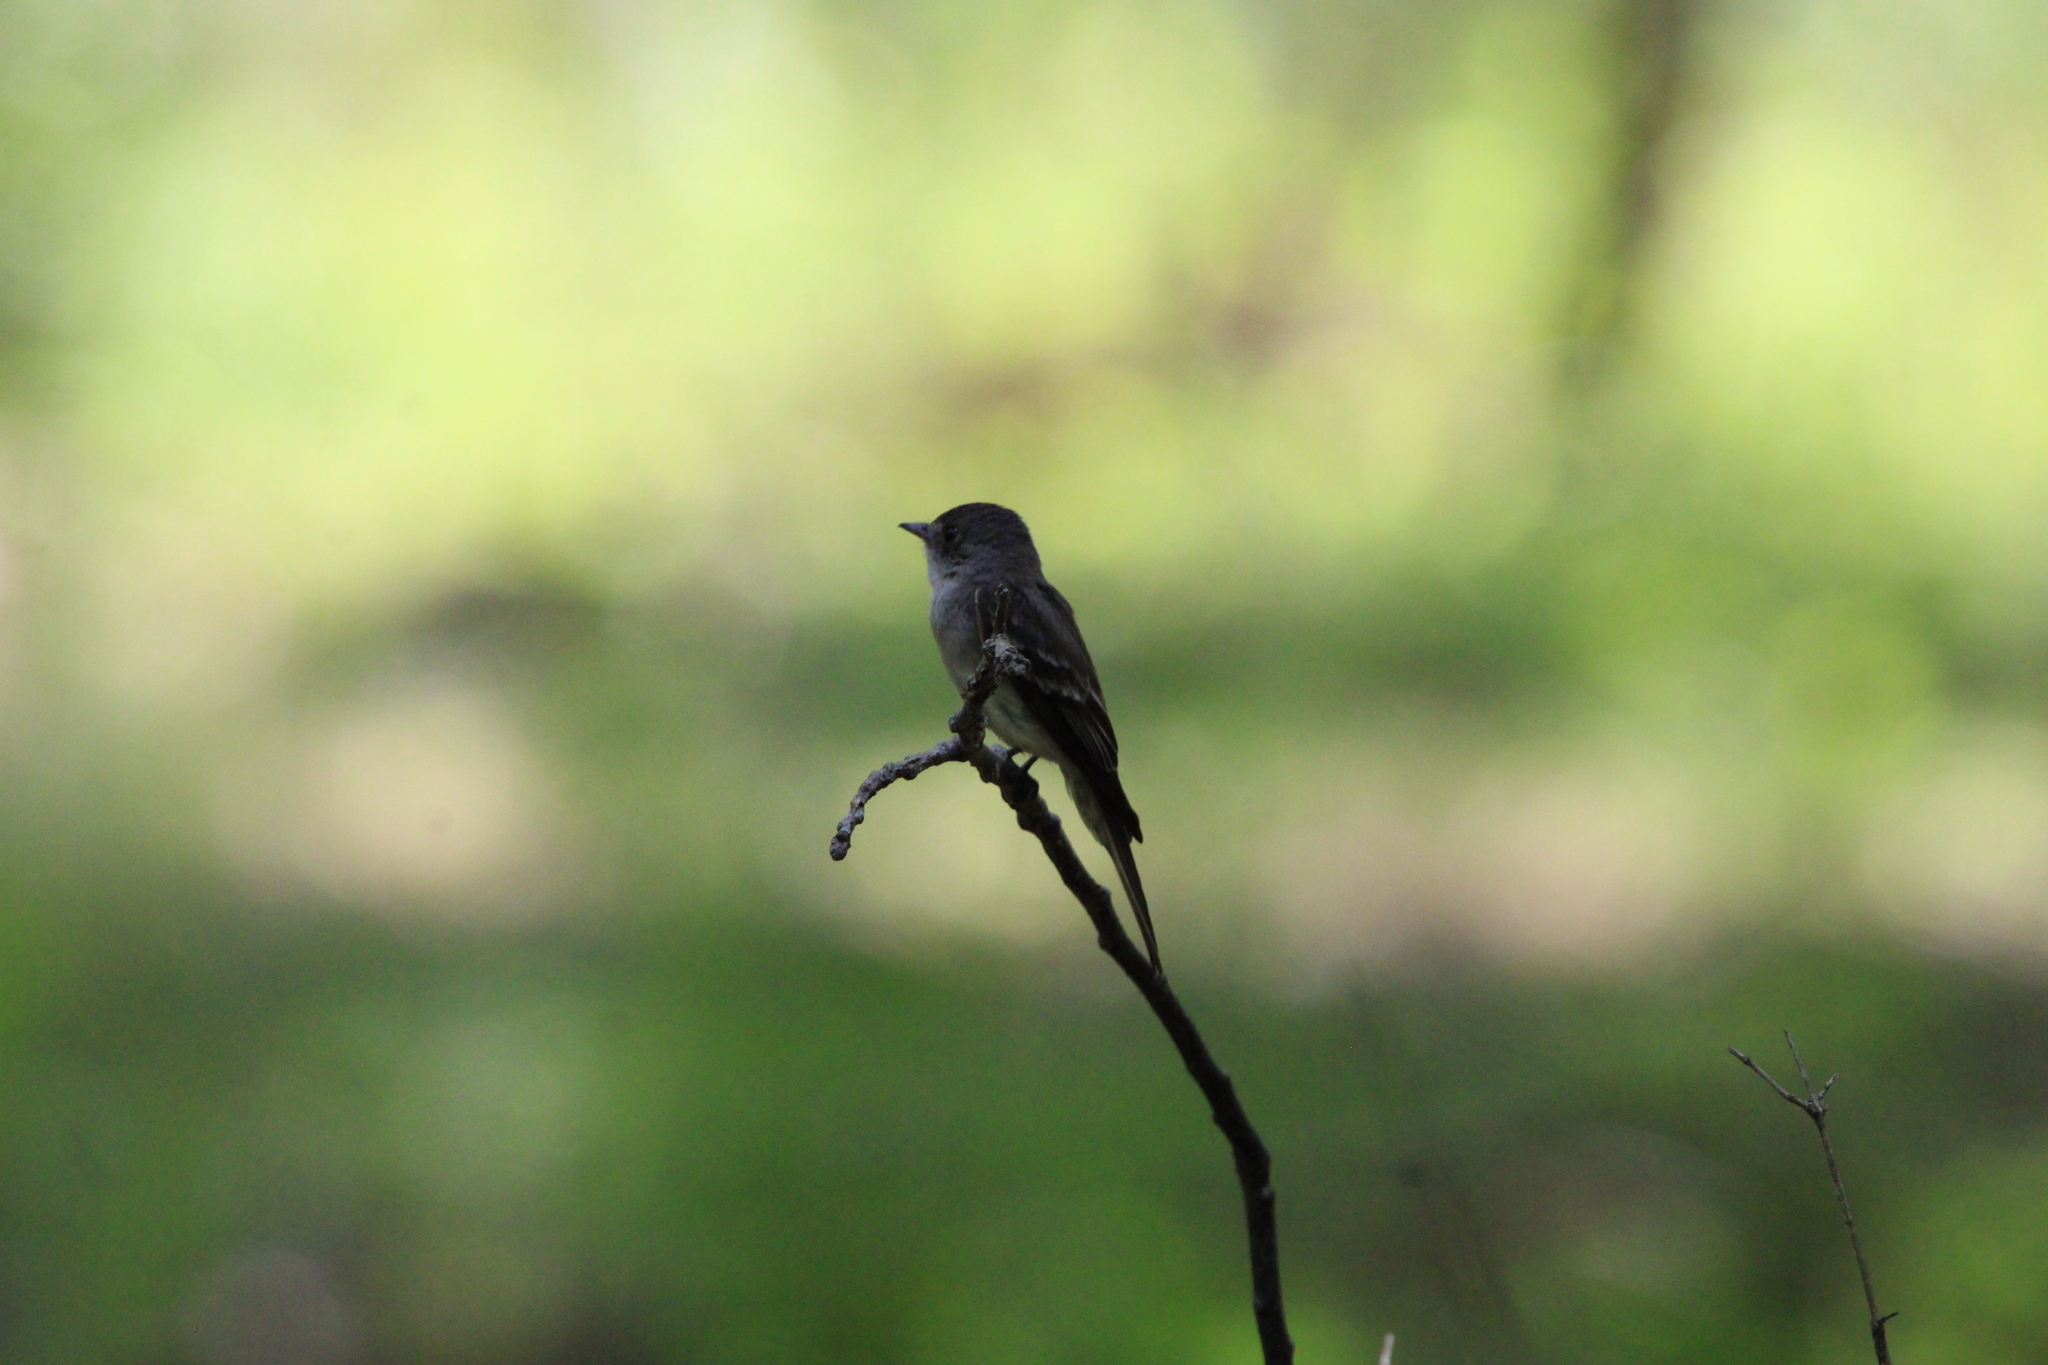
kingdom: Animalia
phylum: Chordata
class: Aves
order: Passeriformes
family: Tyrannidae
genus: Contopus
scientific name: Contopus virens
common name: Eastern wood-pewee
